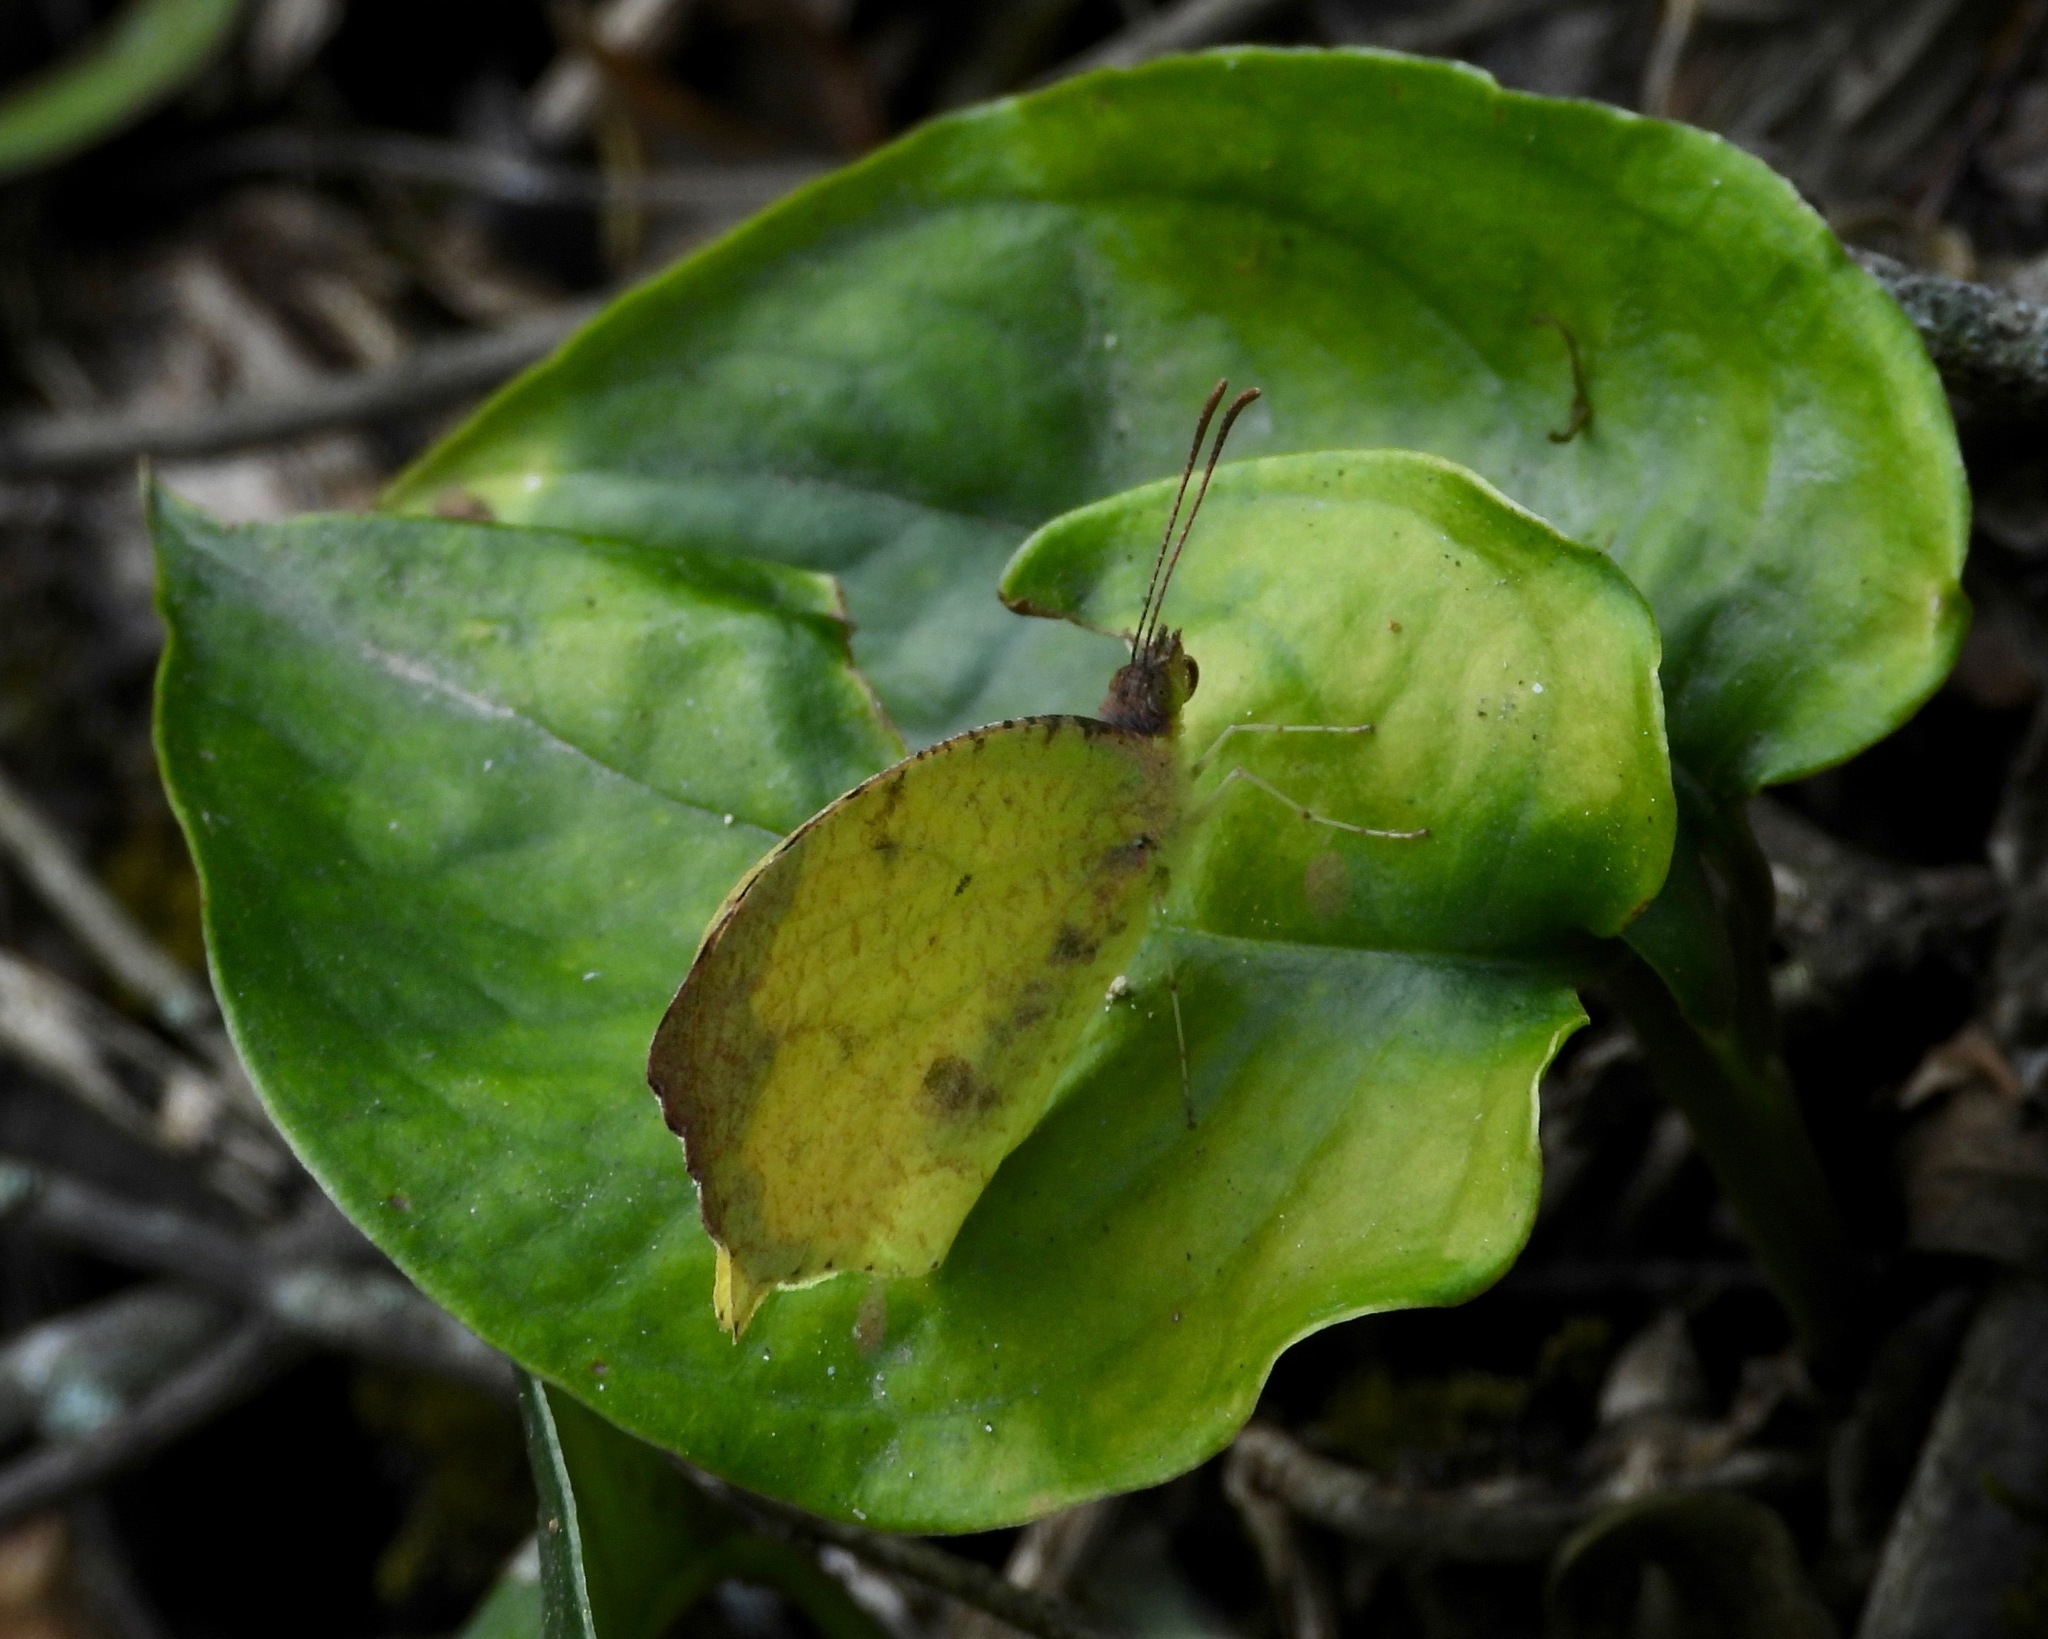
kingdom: Animalia
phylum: Arthropoda
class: Insecta
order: Lepidoptera
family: Pieridae
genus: Abaeis
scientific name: Abaeis salome
